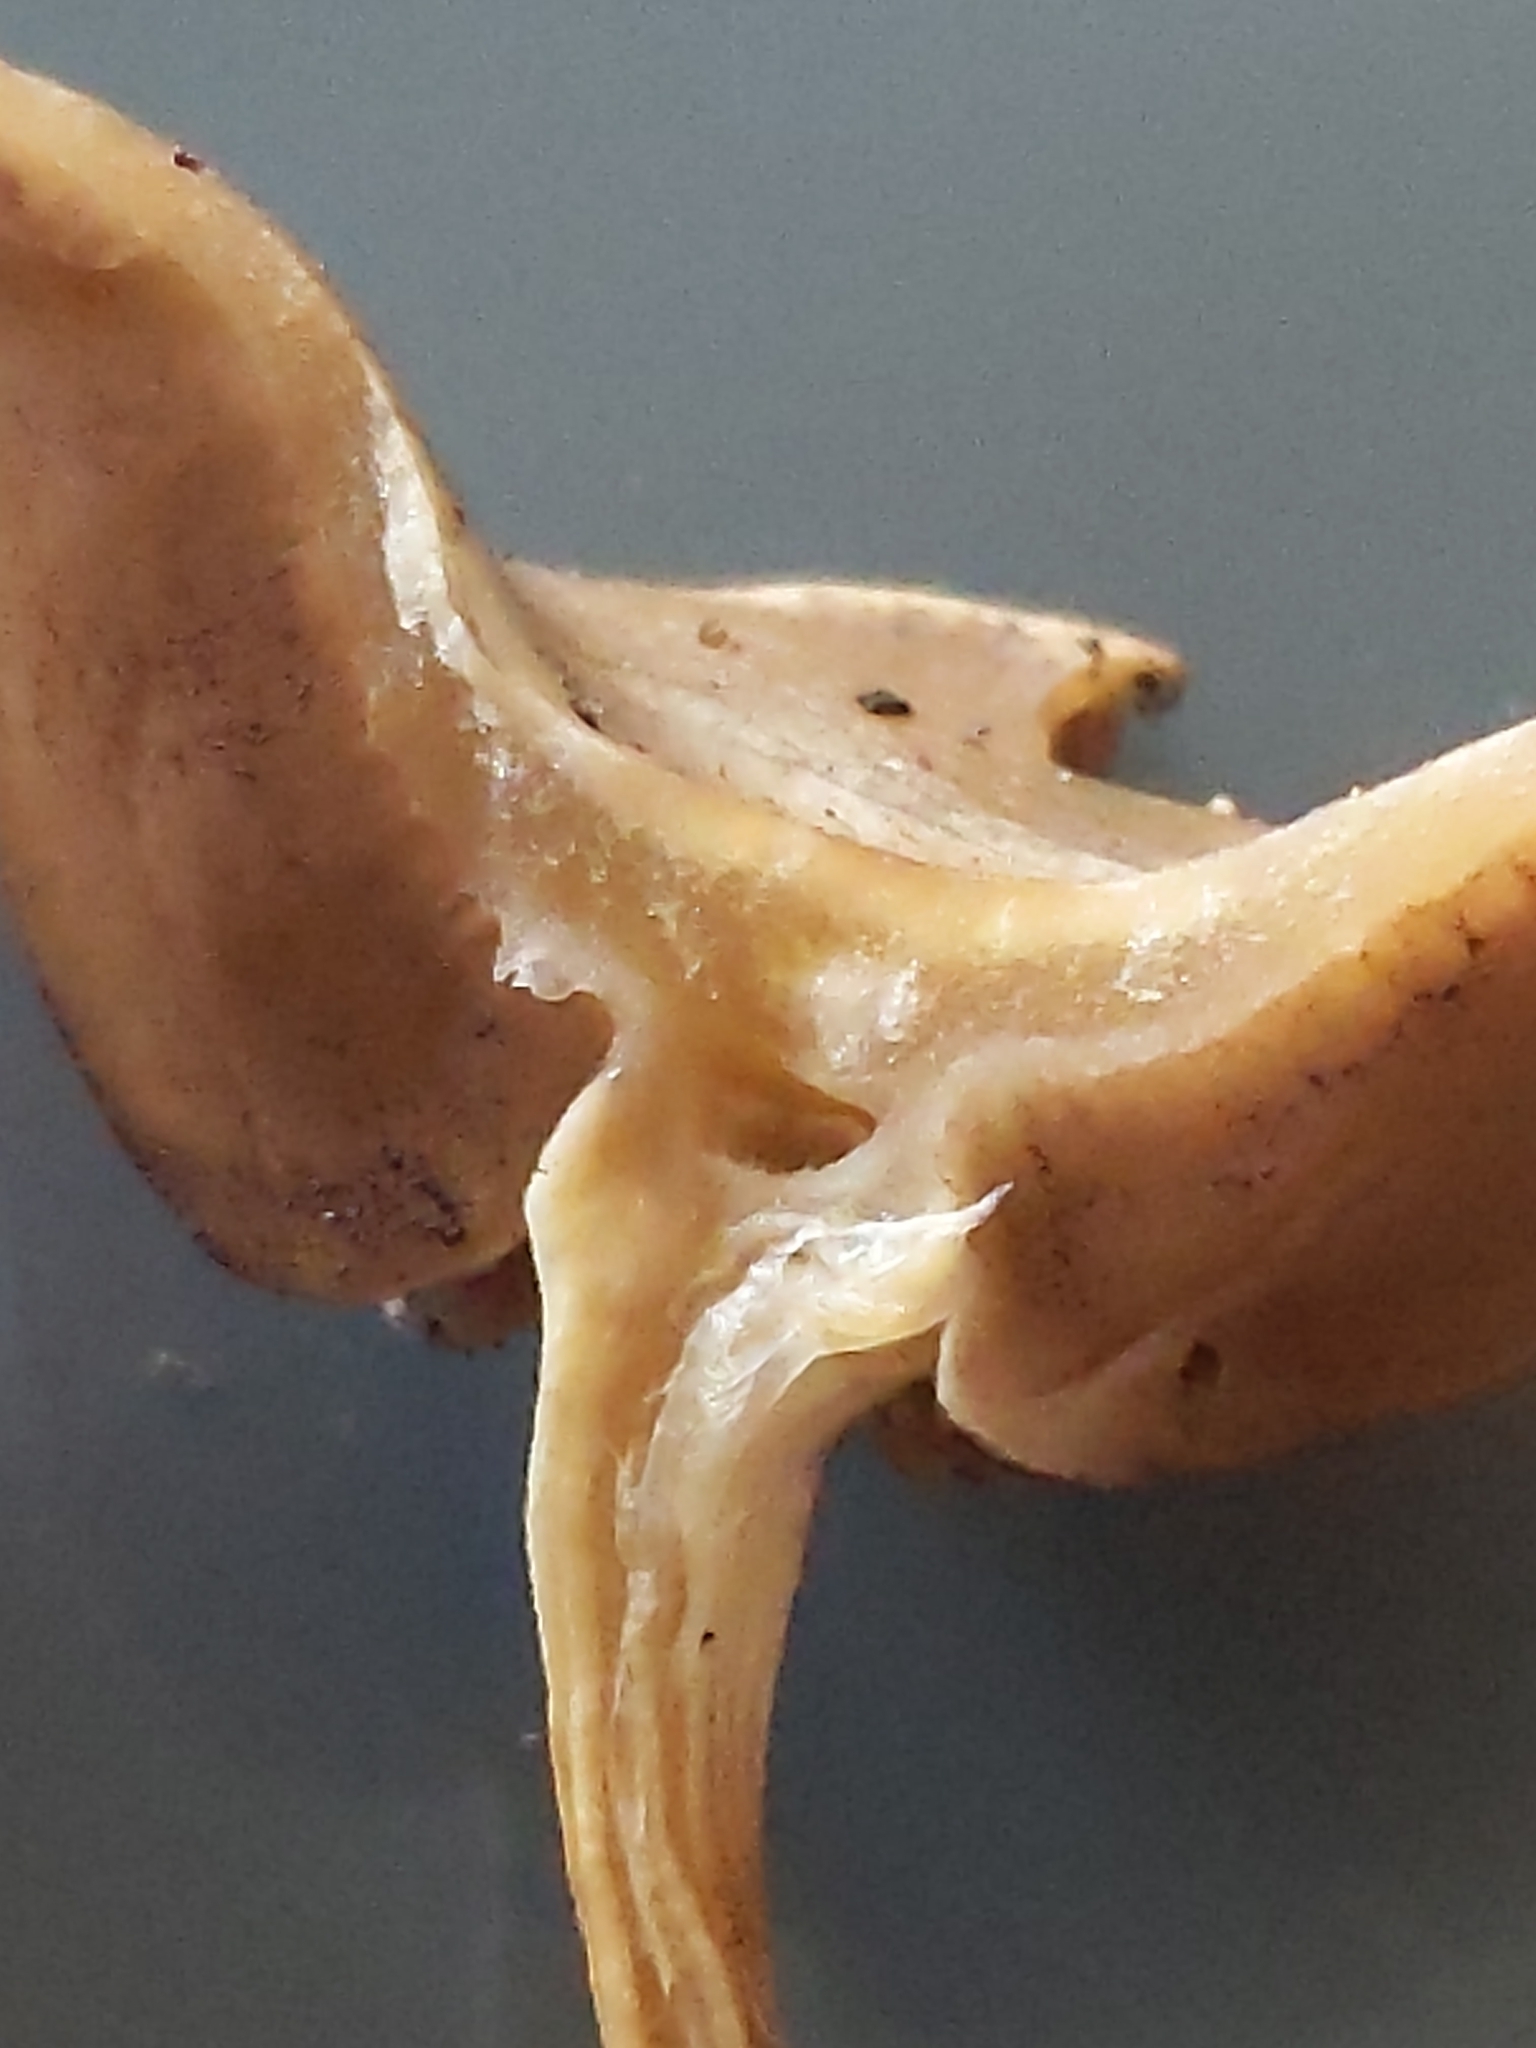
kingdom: Fungi
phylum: Basidiomycota
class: Agaricomycetes
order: Agaricales
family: Strophariaceae
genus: Agrocybe
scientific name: Agrocybe pediades
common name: Common fieldcap
